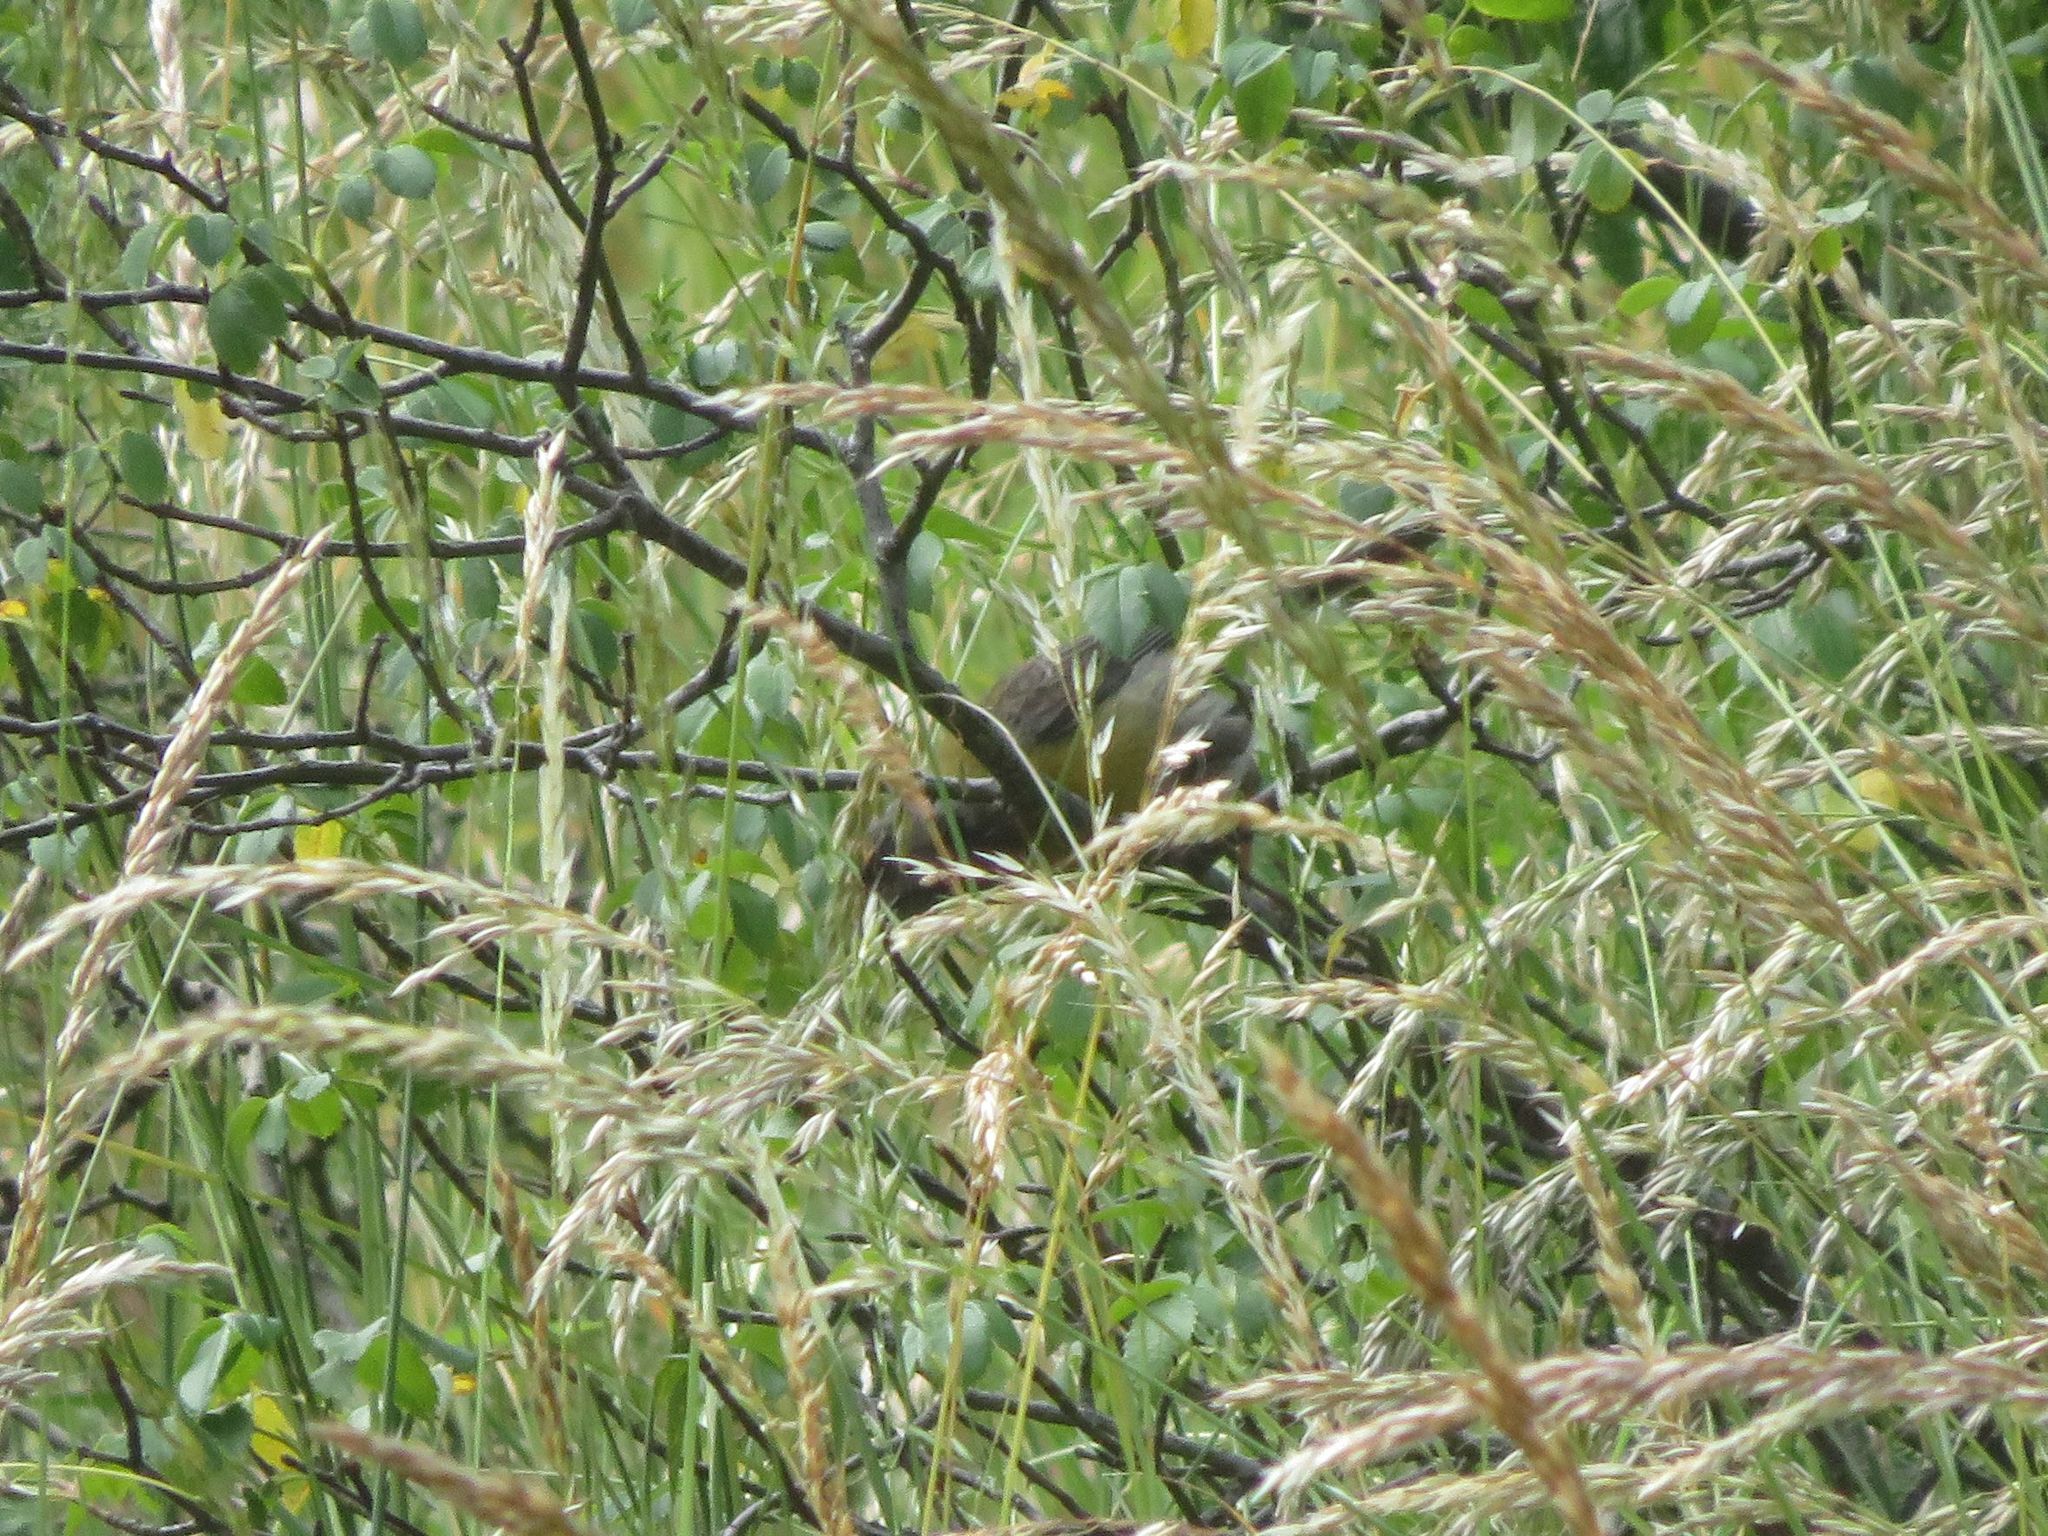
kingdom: Animalia
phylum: Chordata
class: Aves
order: Passeriformes
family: Thraupidae
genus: Phrygilus
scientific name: Phrygilus gayi
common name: Grey-hooded sierra finch
